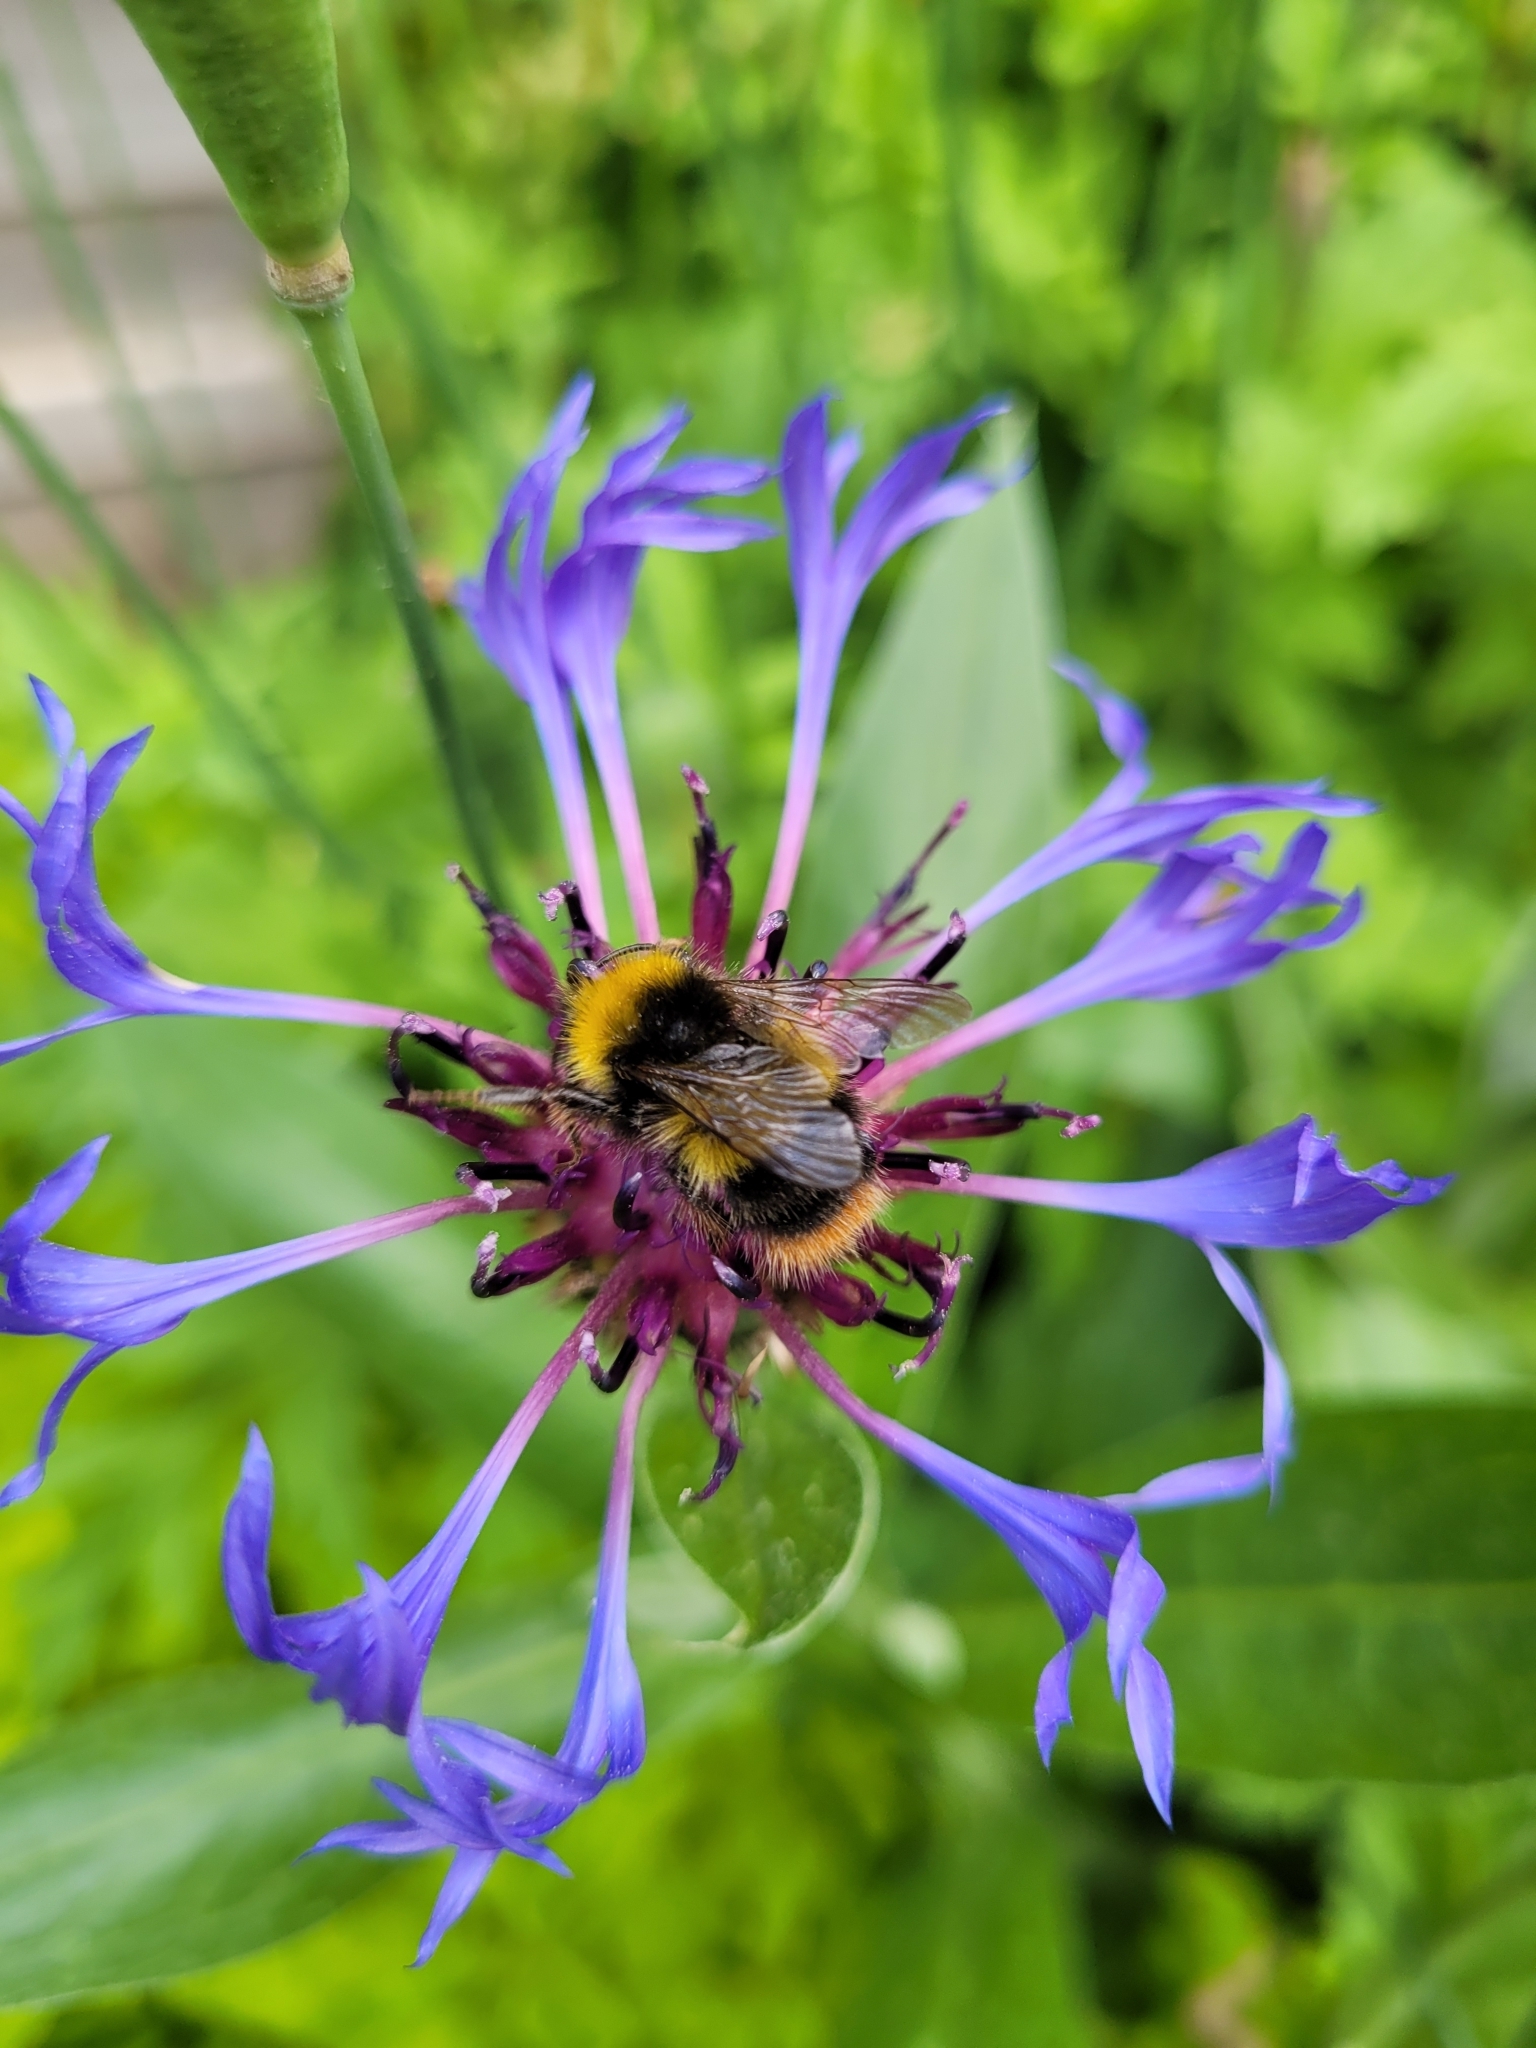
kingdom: Animalia
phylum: Arthropoda
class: Insecta
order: Hymenoptera
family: Apidae
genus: Bombus
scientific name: Bombus pratorum
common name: Early humble-bee
